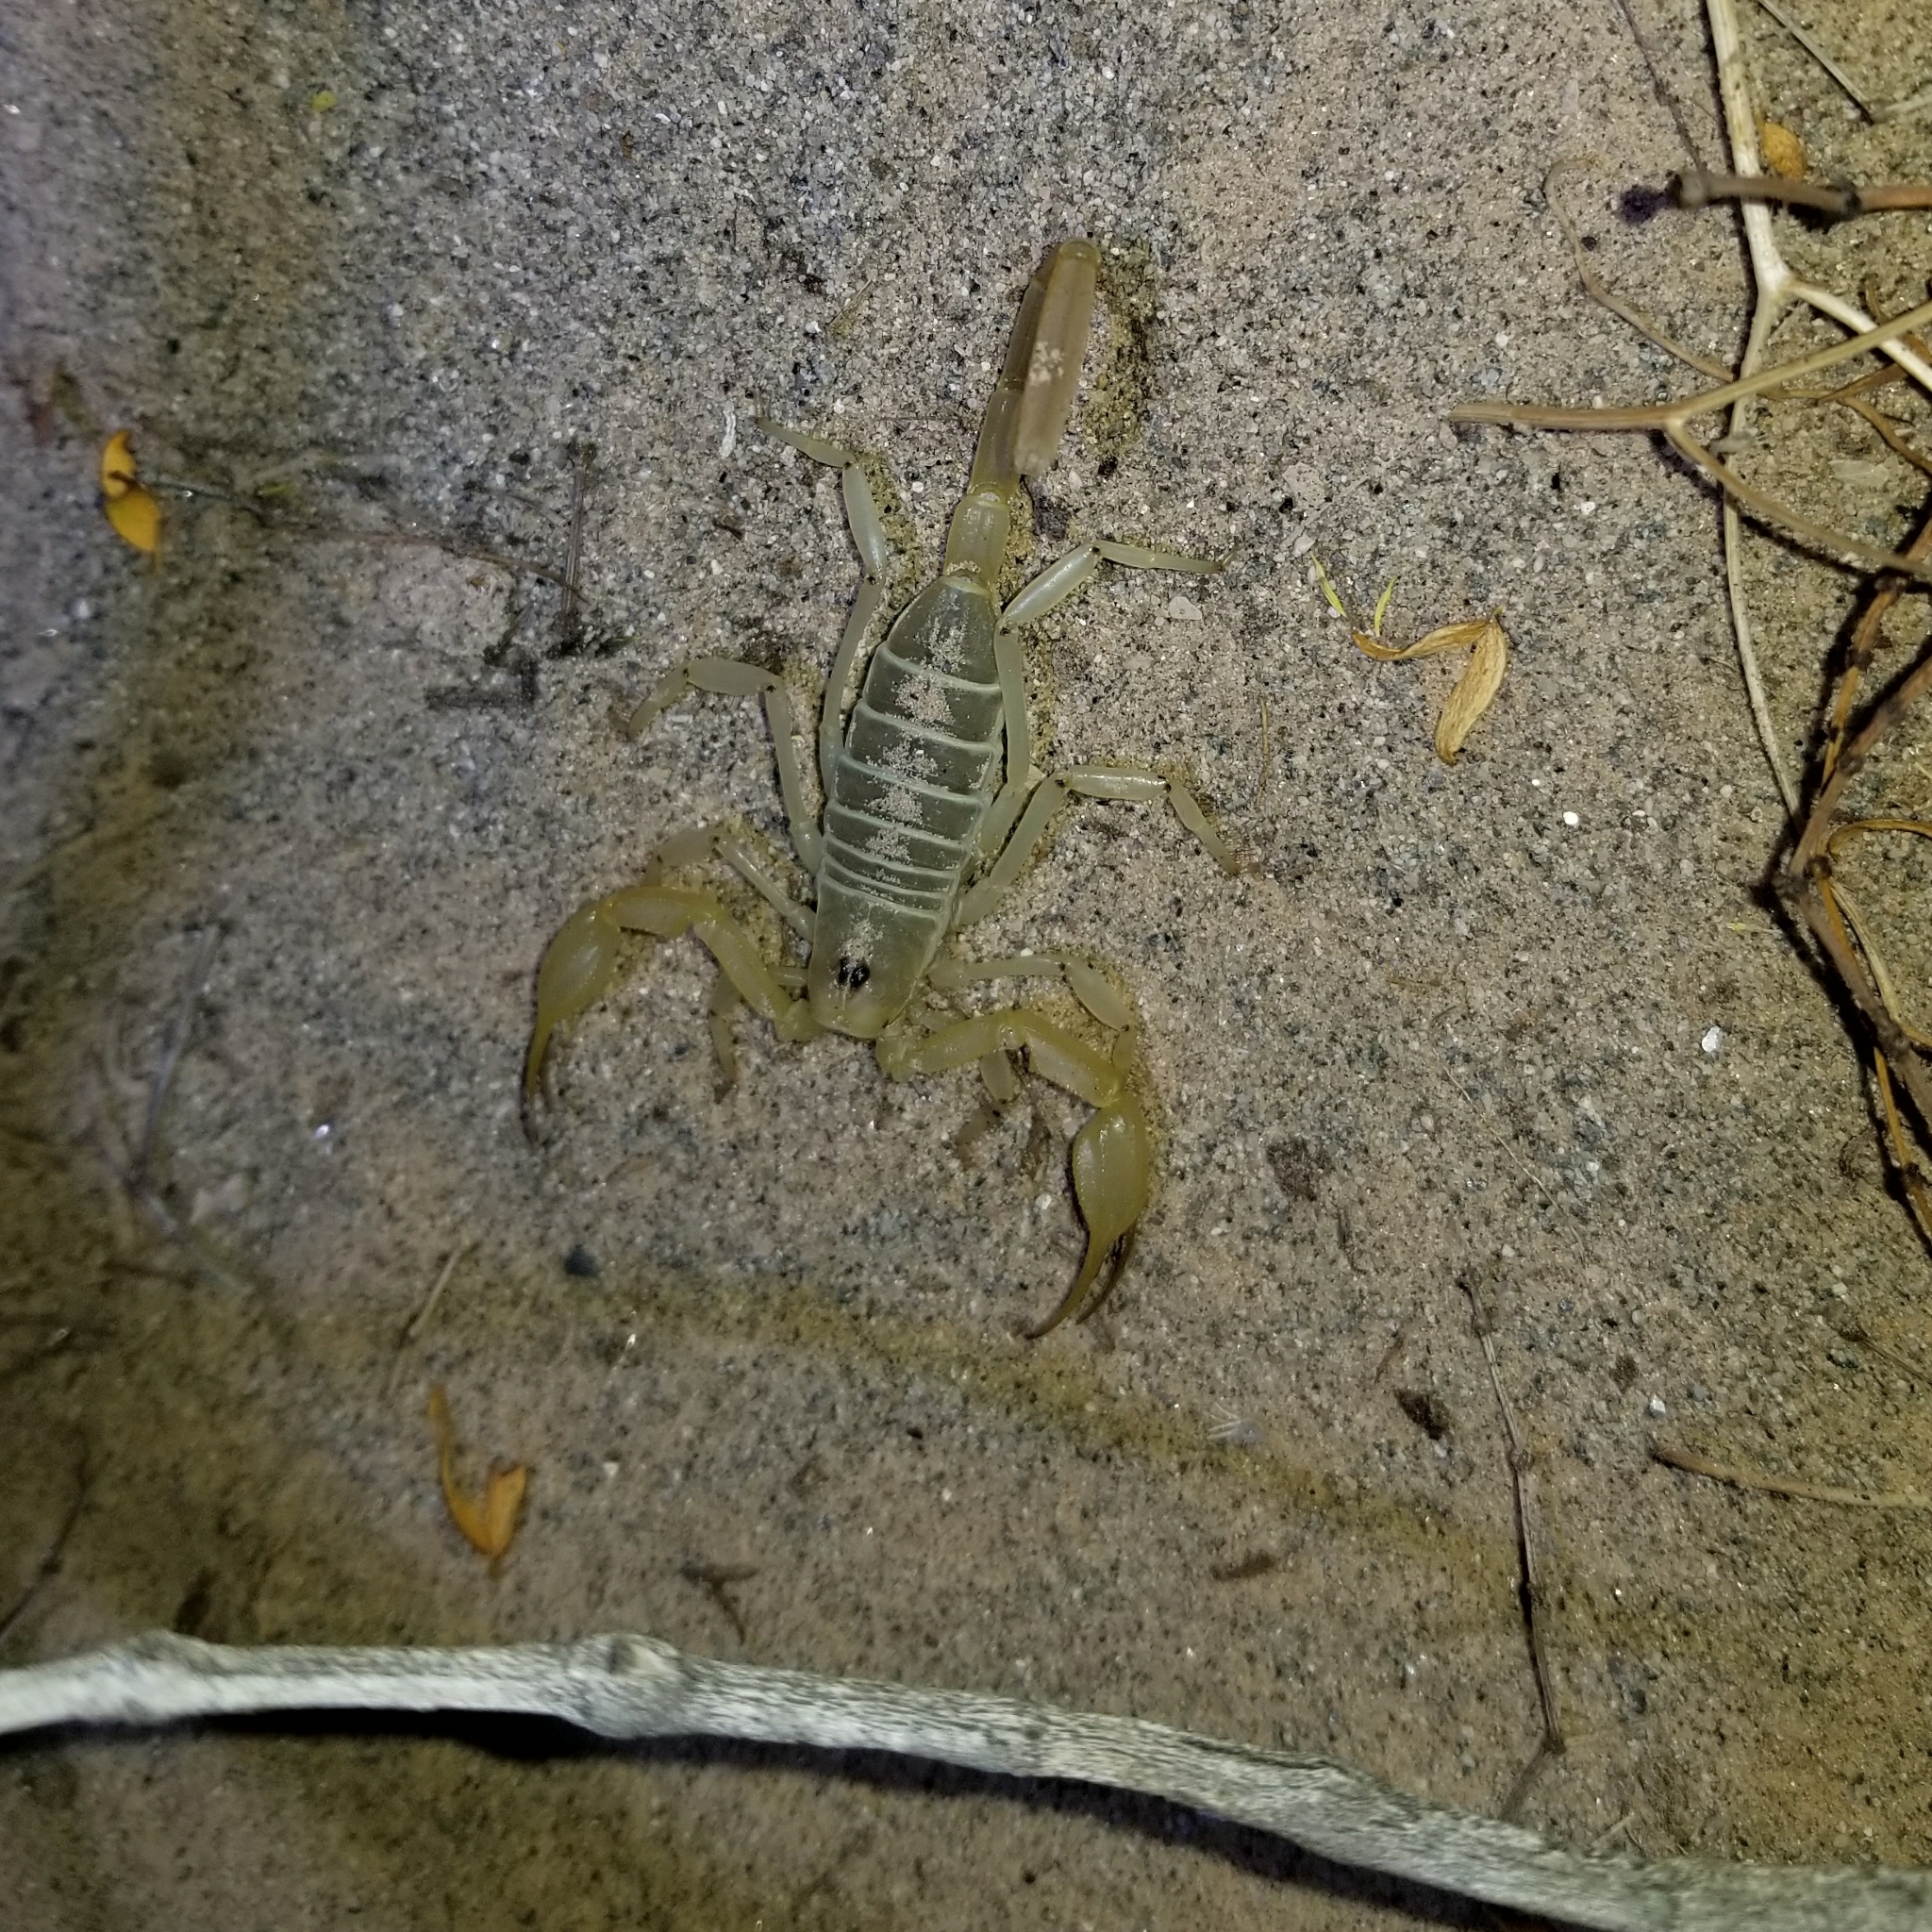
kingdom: Animalia
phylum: Arthropoda
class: Arachnida
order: Scorpiones
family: Vaejovidae
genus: Smeringurus
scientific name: Smeringurus mesaensis
